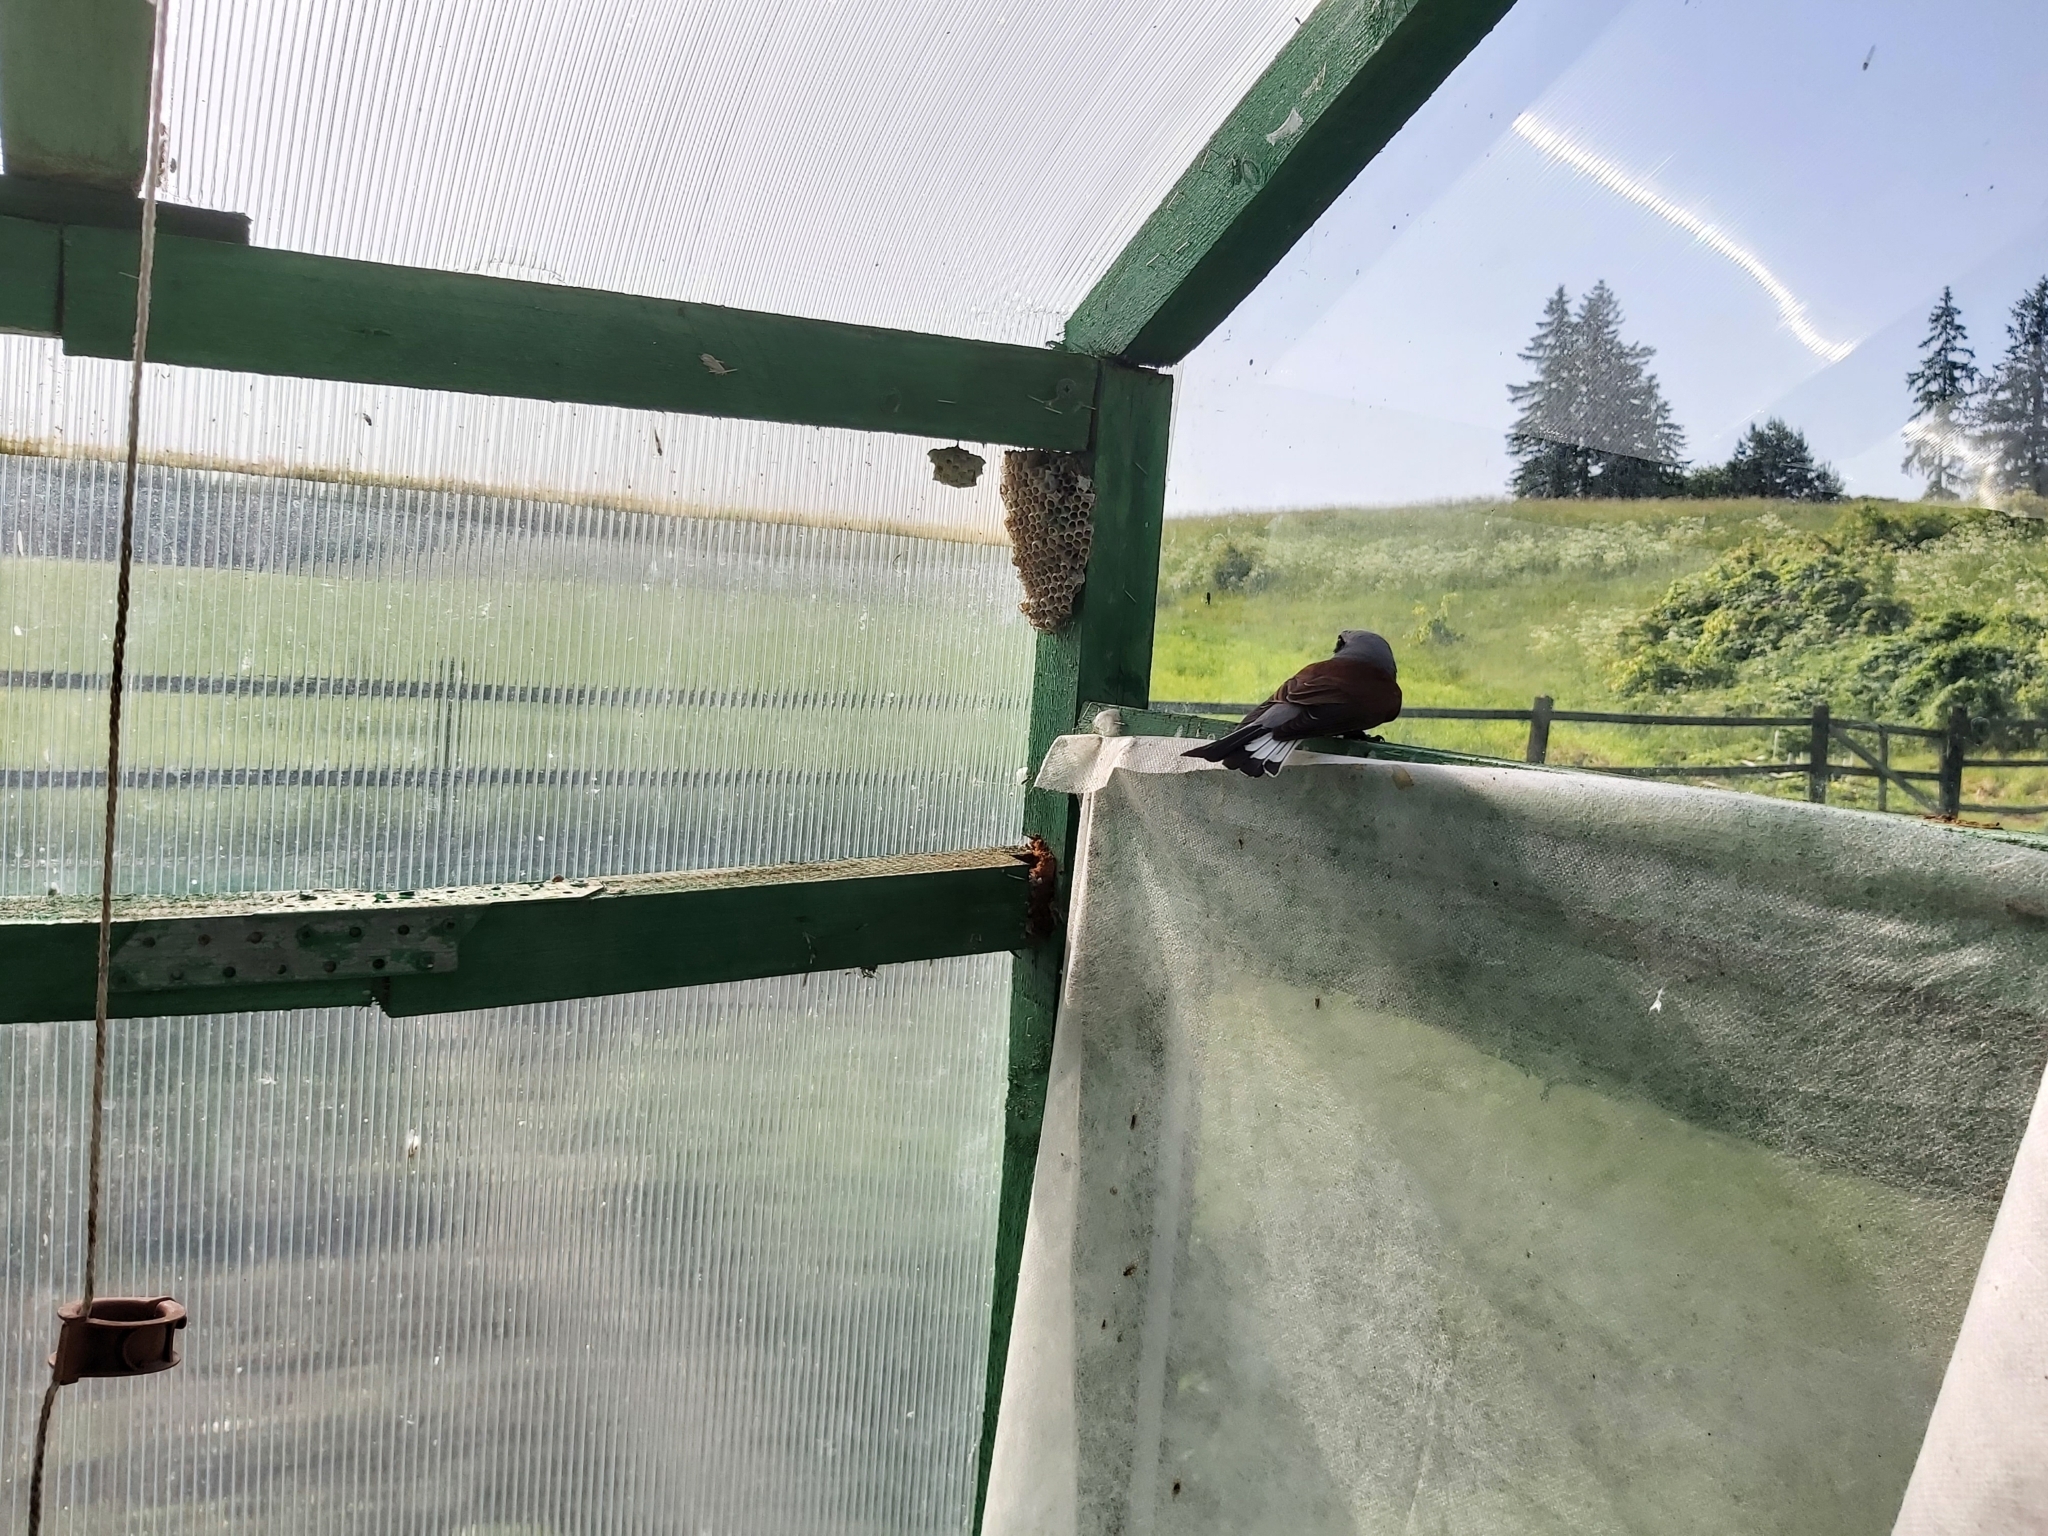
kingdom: Animalia
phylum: Chordata
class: Aves
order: Passeriformes
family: Laniidae
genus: Lanius
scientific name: Lanius collurio
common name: Red-backed shrike
